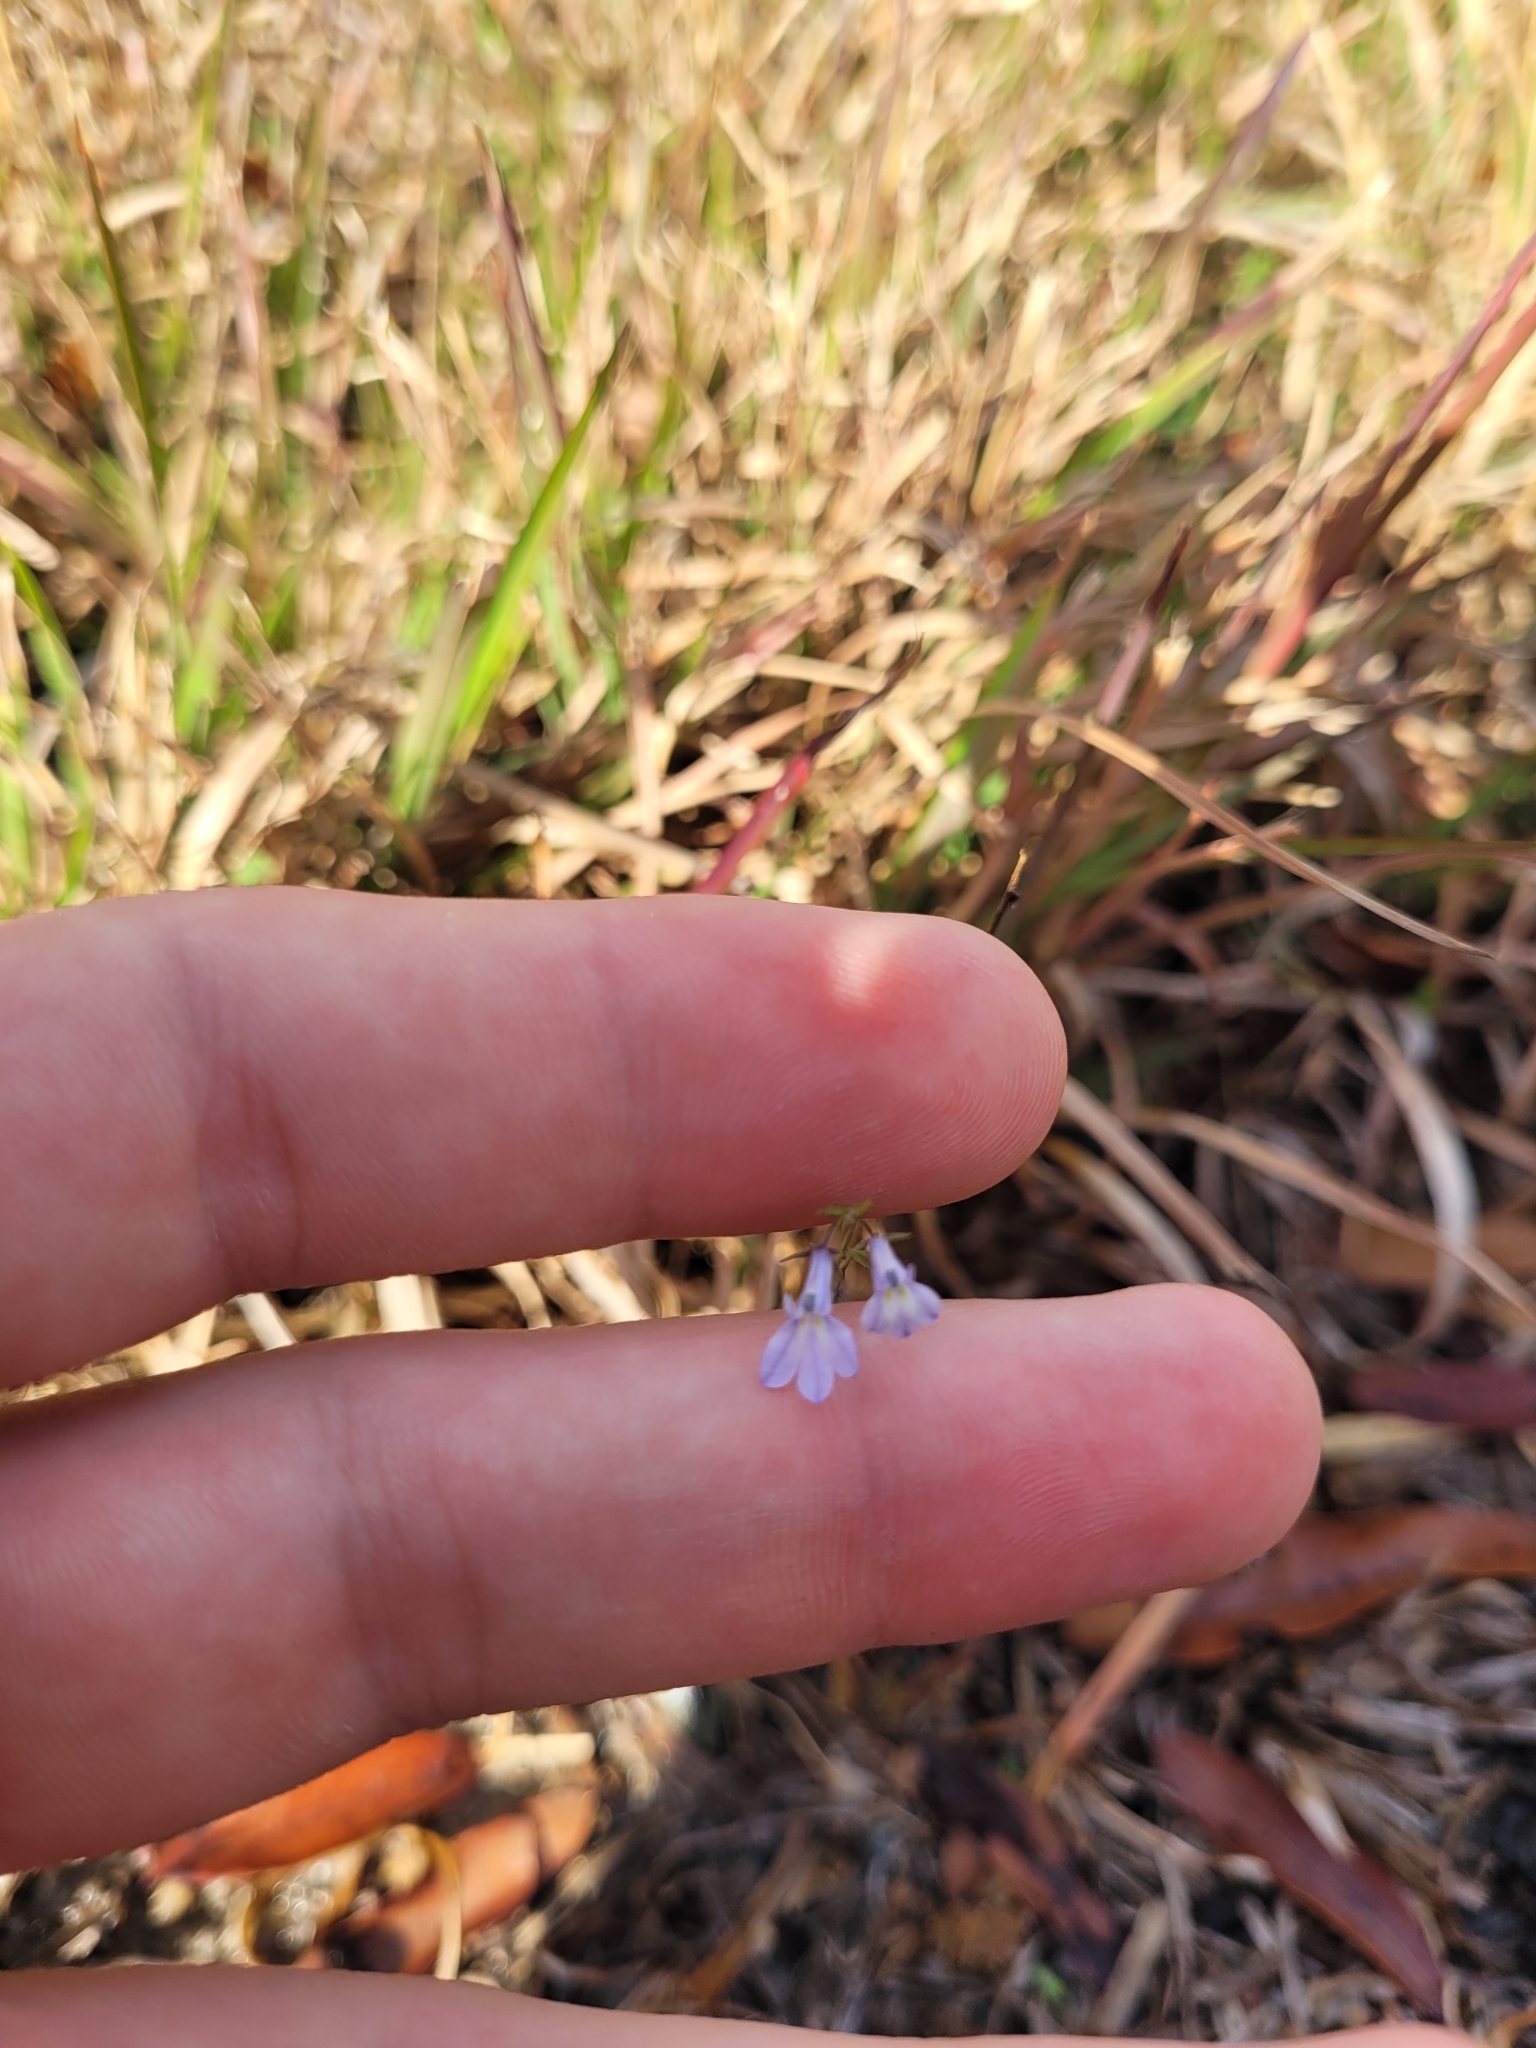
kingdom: Plantae
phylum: Tracheophyta
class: Magnoliopsida
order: Asterales
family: Campanulaceae
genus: Lobelia
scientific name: Lobelia nuttallii
